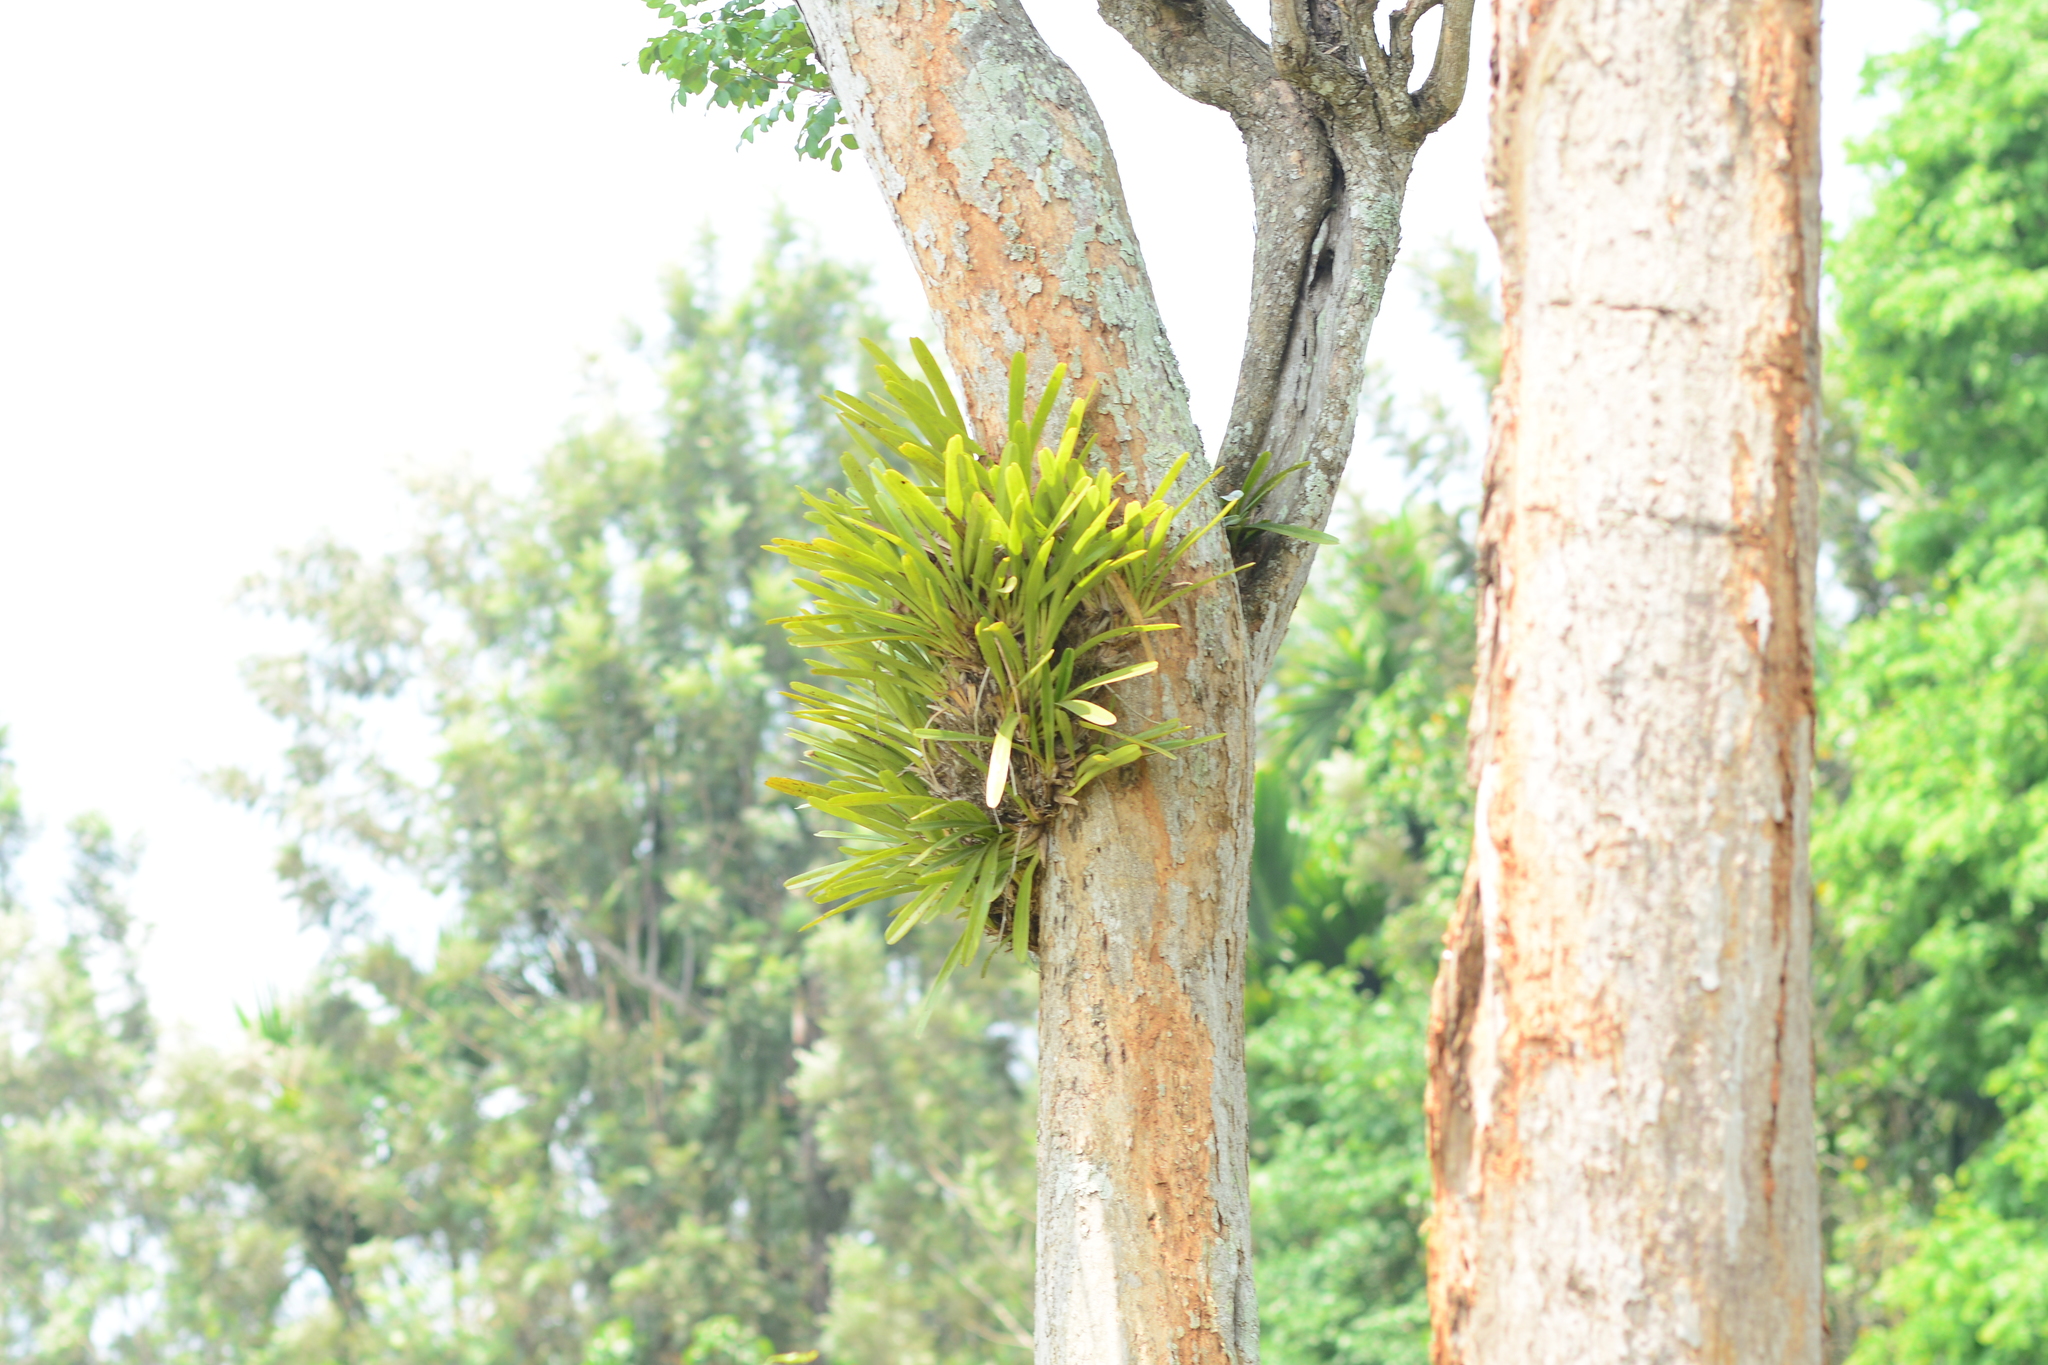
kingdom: Plantae
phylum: Tracheophyta
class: Liliopsida
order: Asparagales
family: Orchidaceae
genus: Cymbidium
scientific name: Cymbidium bicolor
